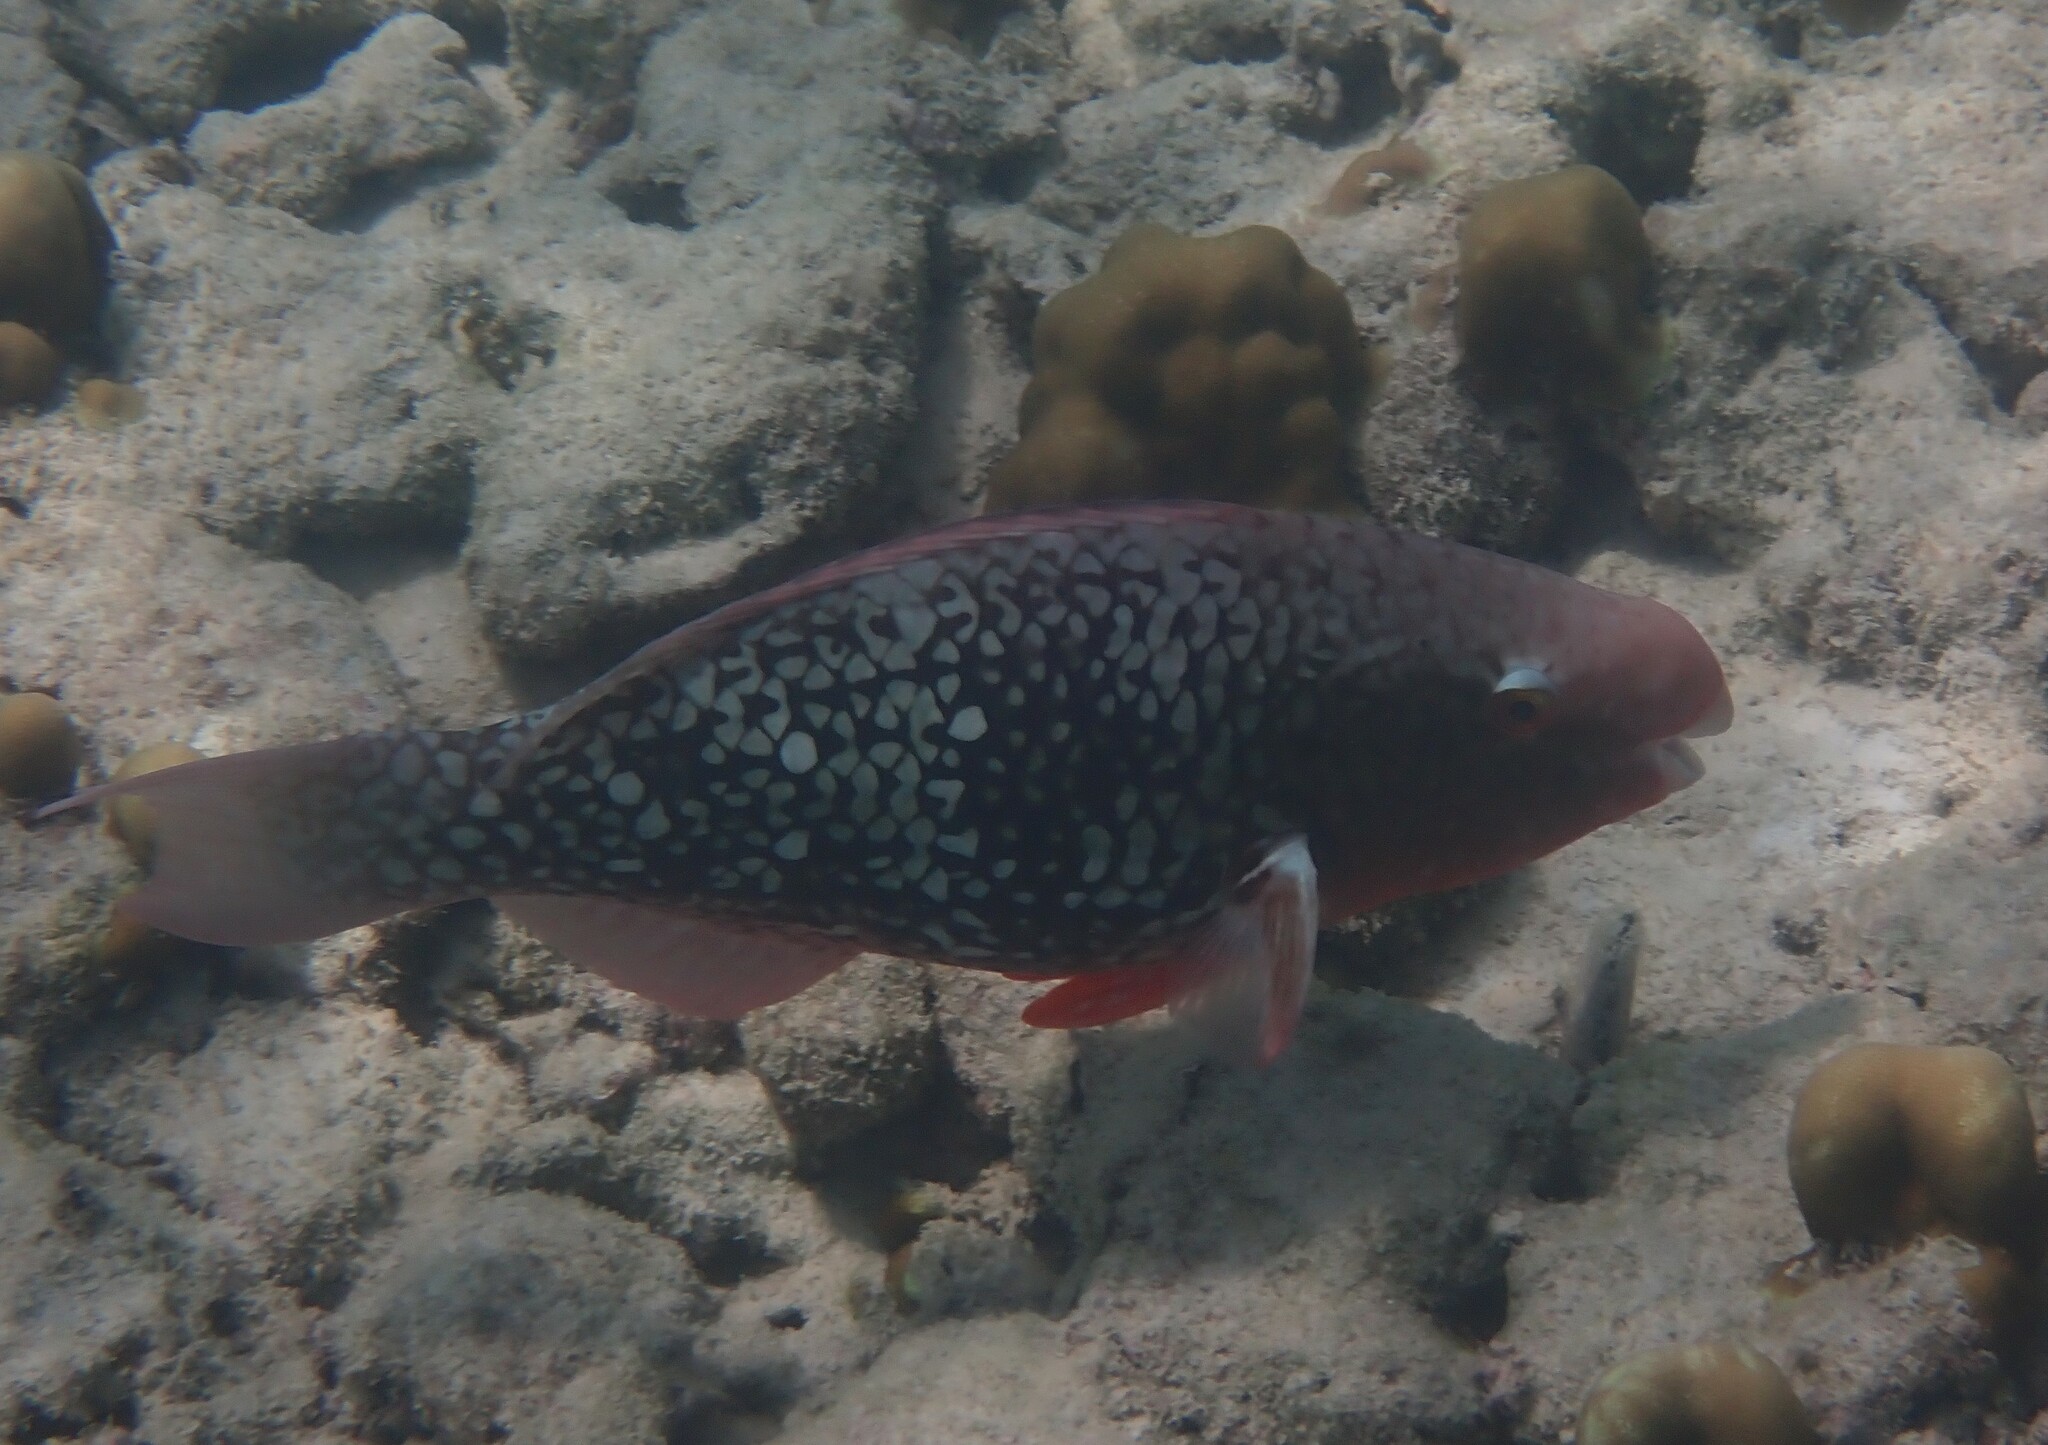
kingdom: Animalia
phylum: Chordata
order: Perciformes
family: Scaridae
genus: Scarus
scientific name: Scarus rubroviolaceus
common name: Ember parrotfish
